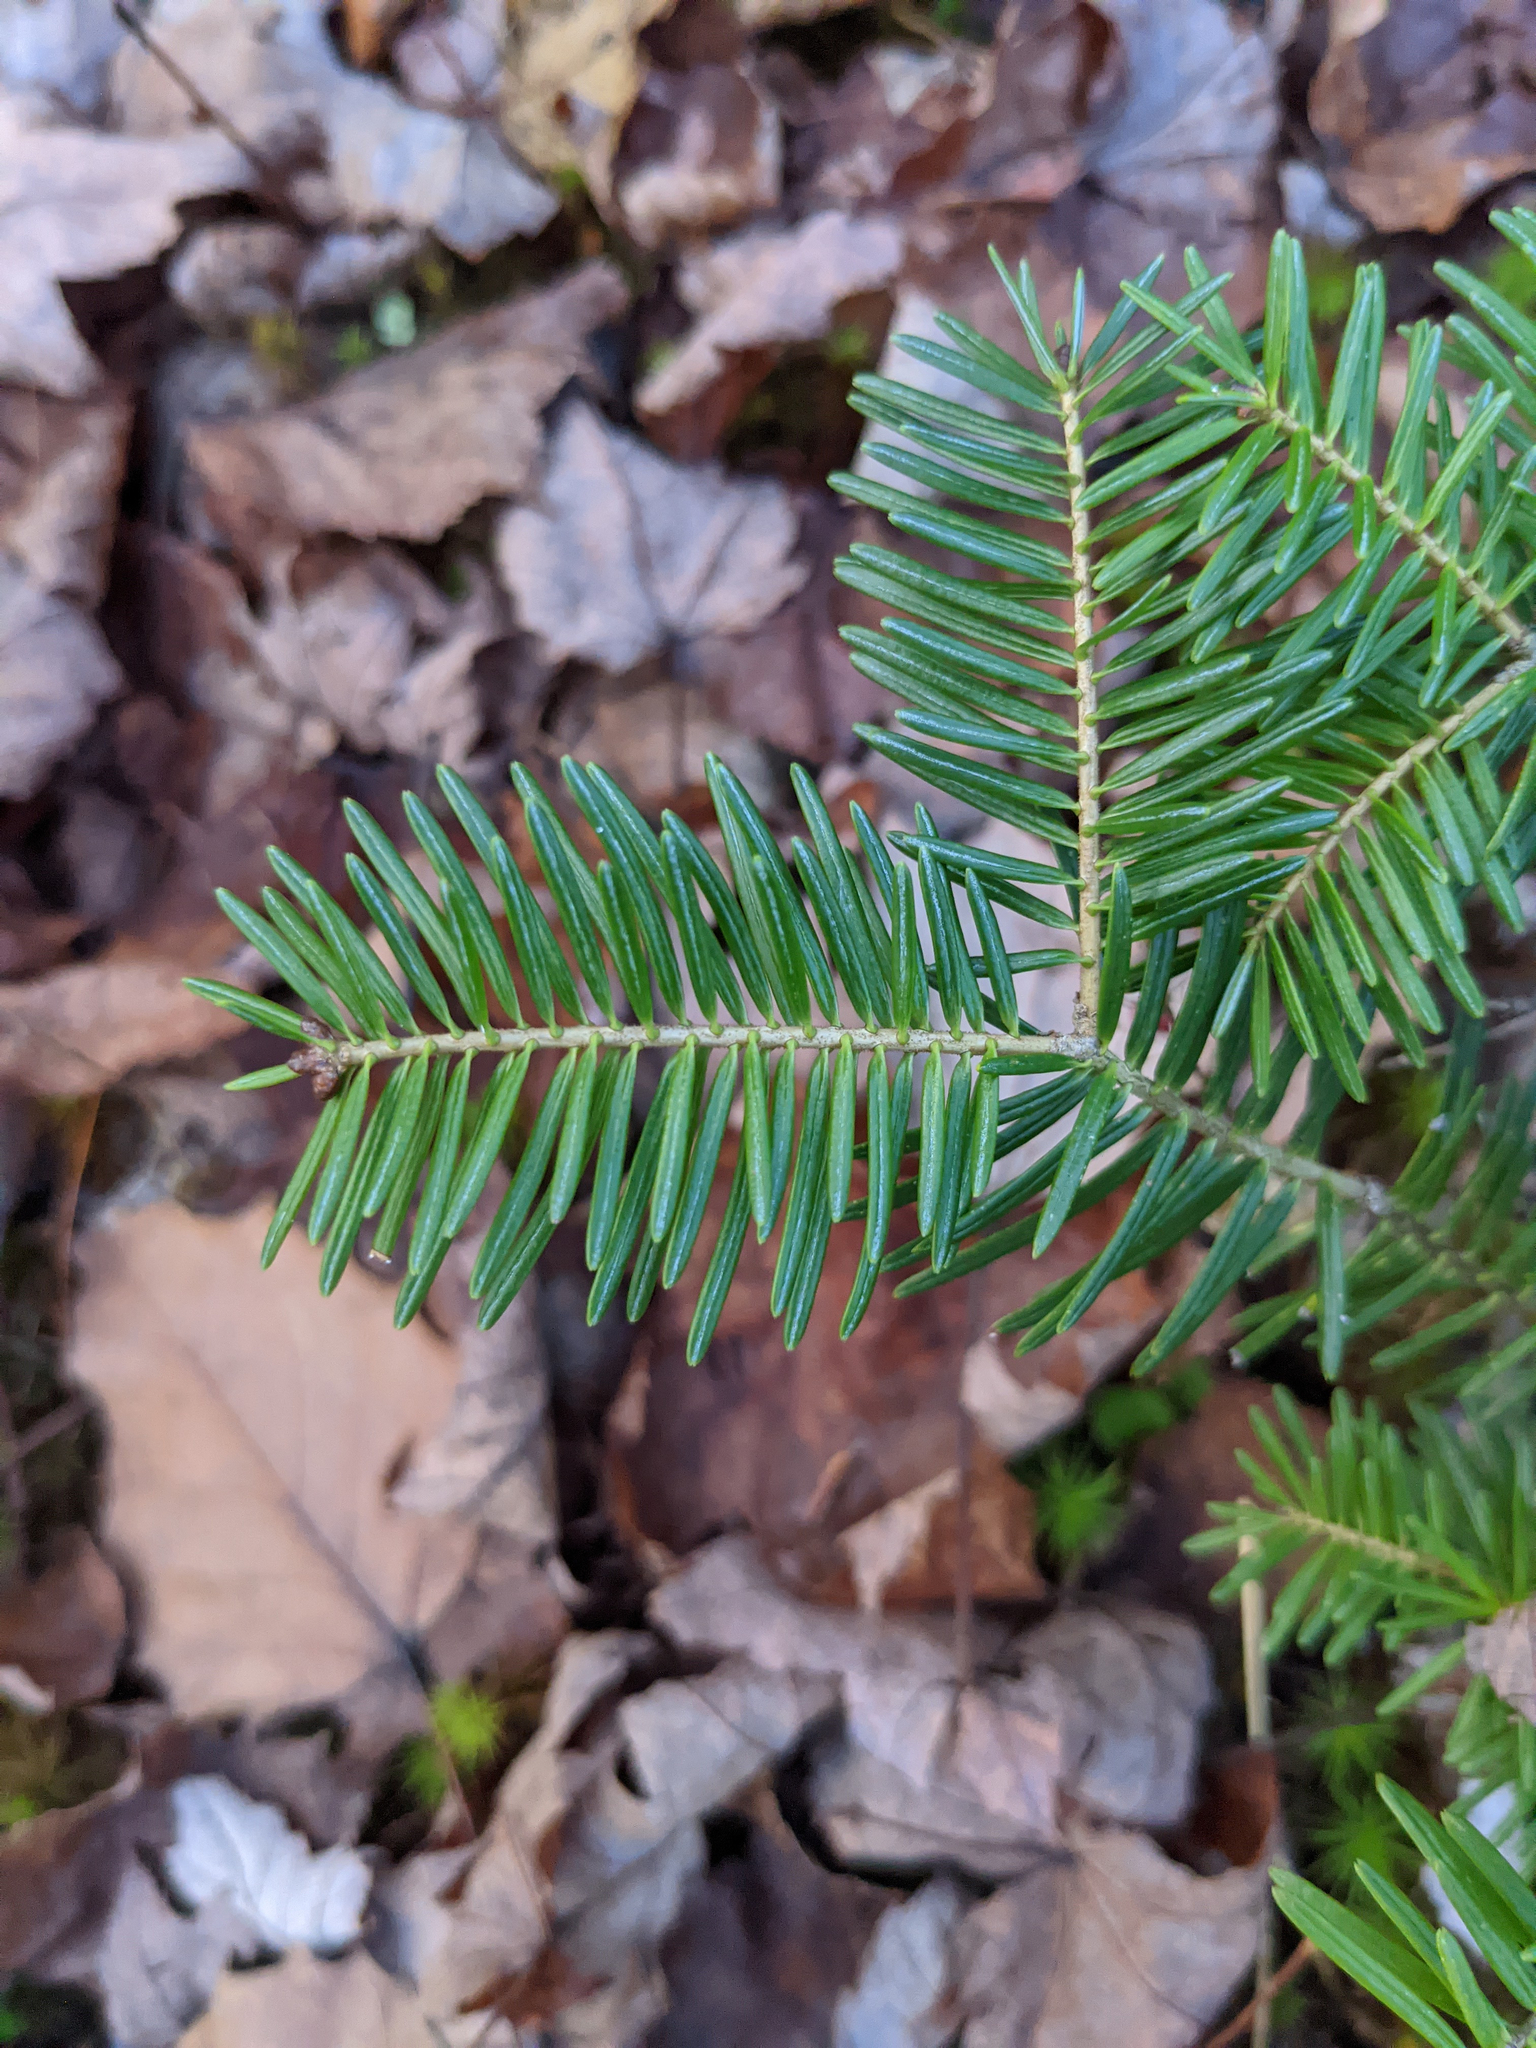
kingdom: Plantae
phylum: Tracheophyta
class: Pinopsida
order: Pinales
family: Pinaceae
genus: Abies
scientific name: Abies balsamea
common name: Balsam fir
